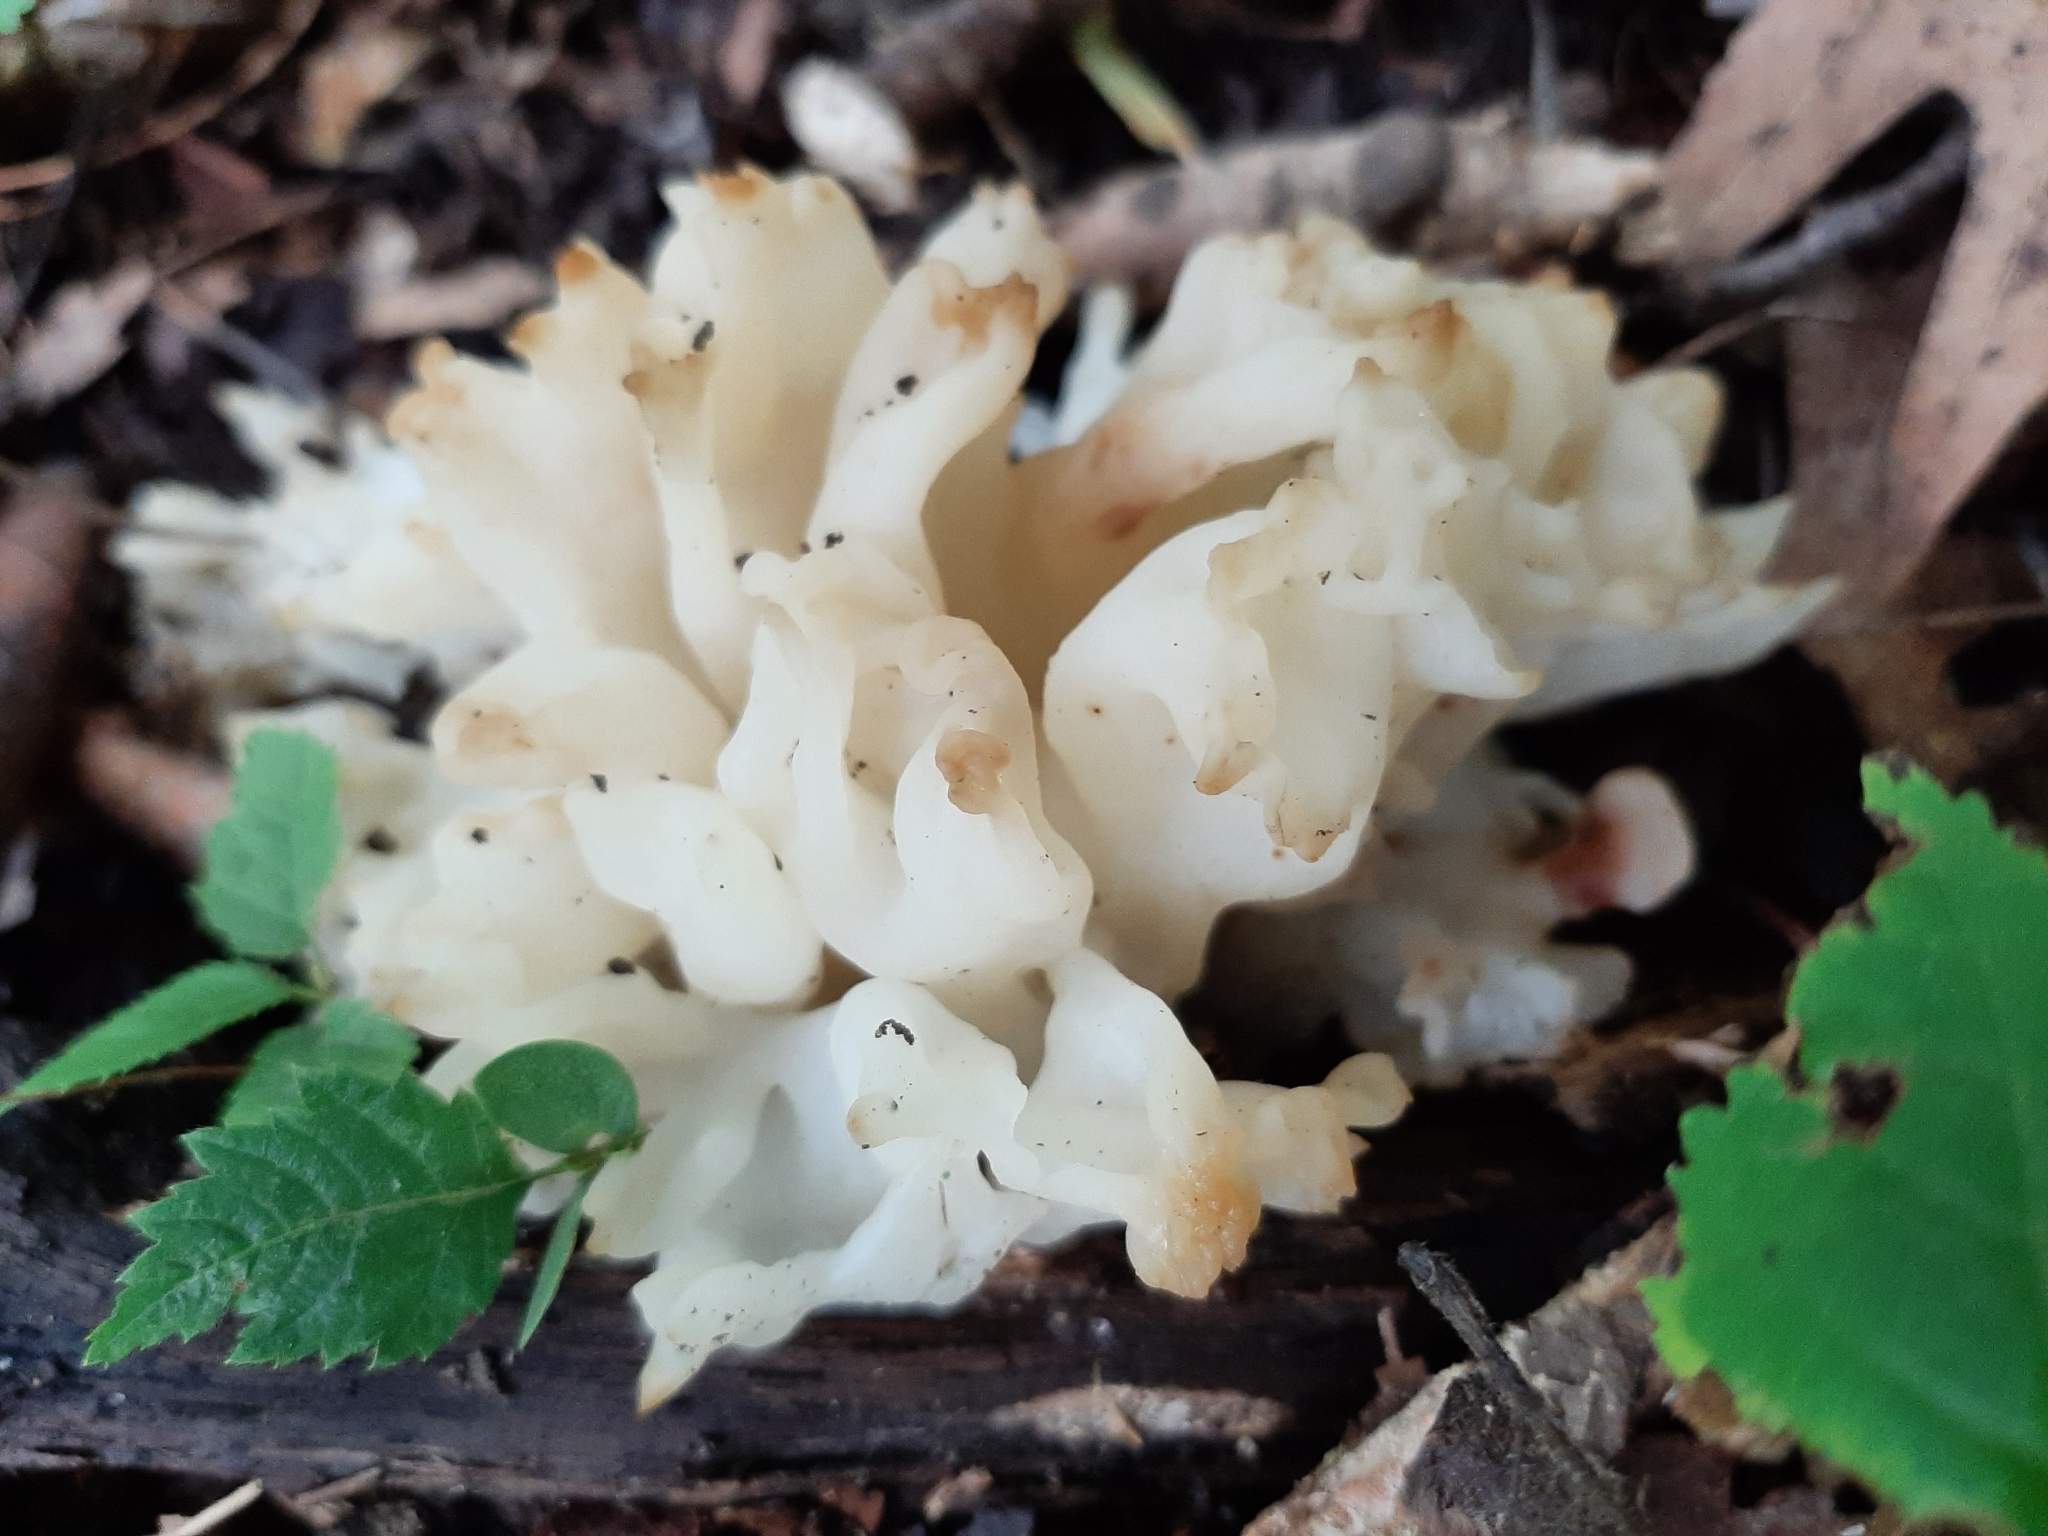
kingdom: Fungi
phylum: Basidiomycota
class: Agaricomycetes
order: Sebacinales
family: Sebacinaceae
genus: Sebacina
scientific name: Sebacina sparassoidea
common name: White coral jelly fungus
